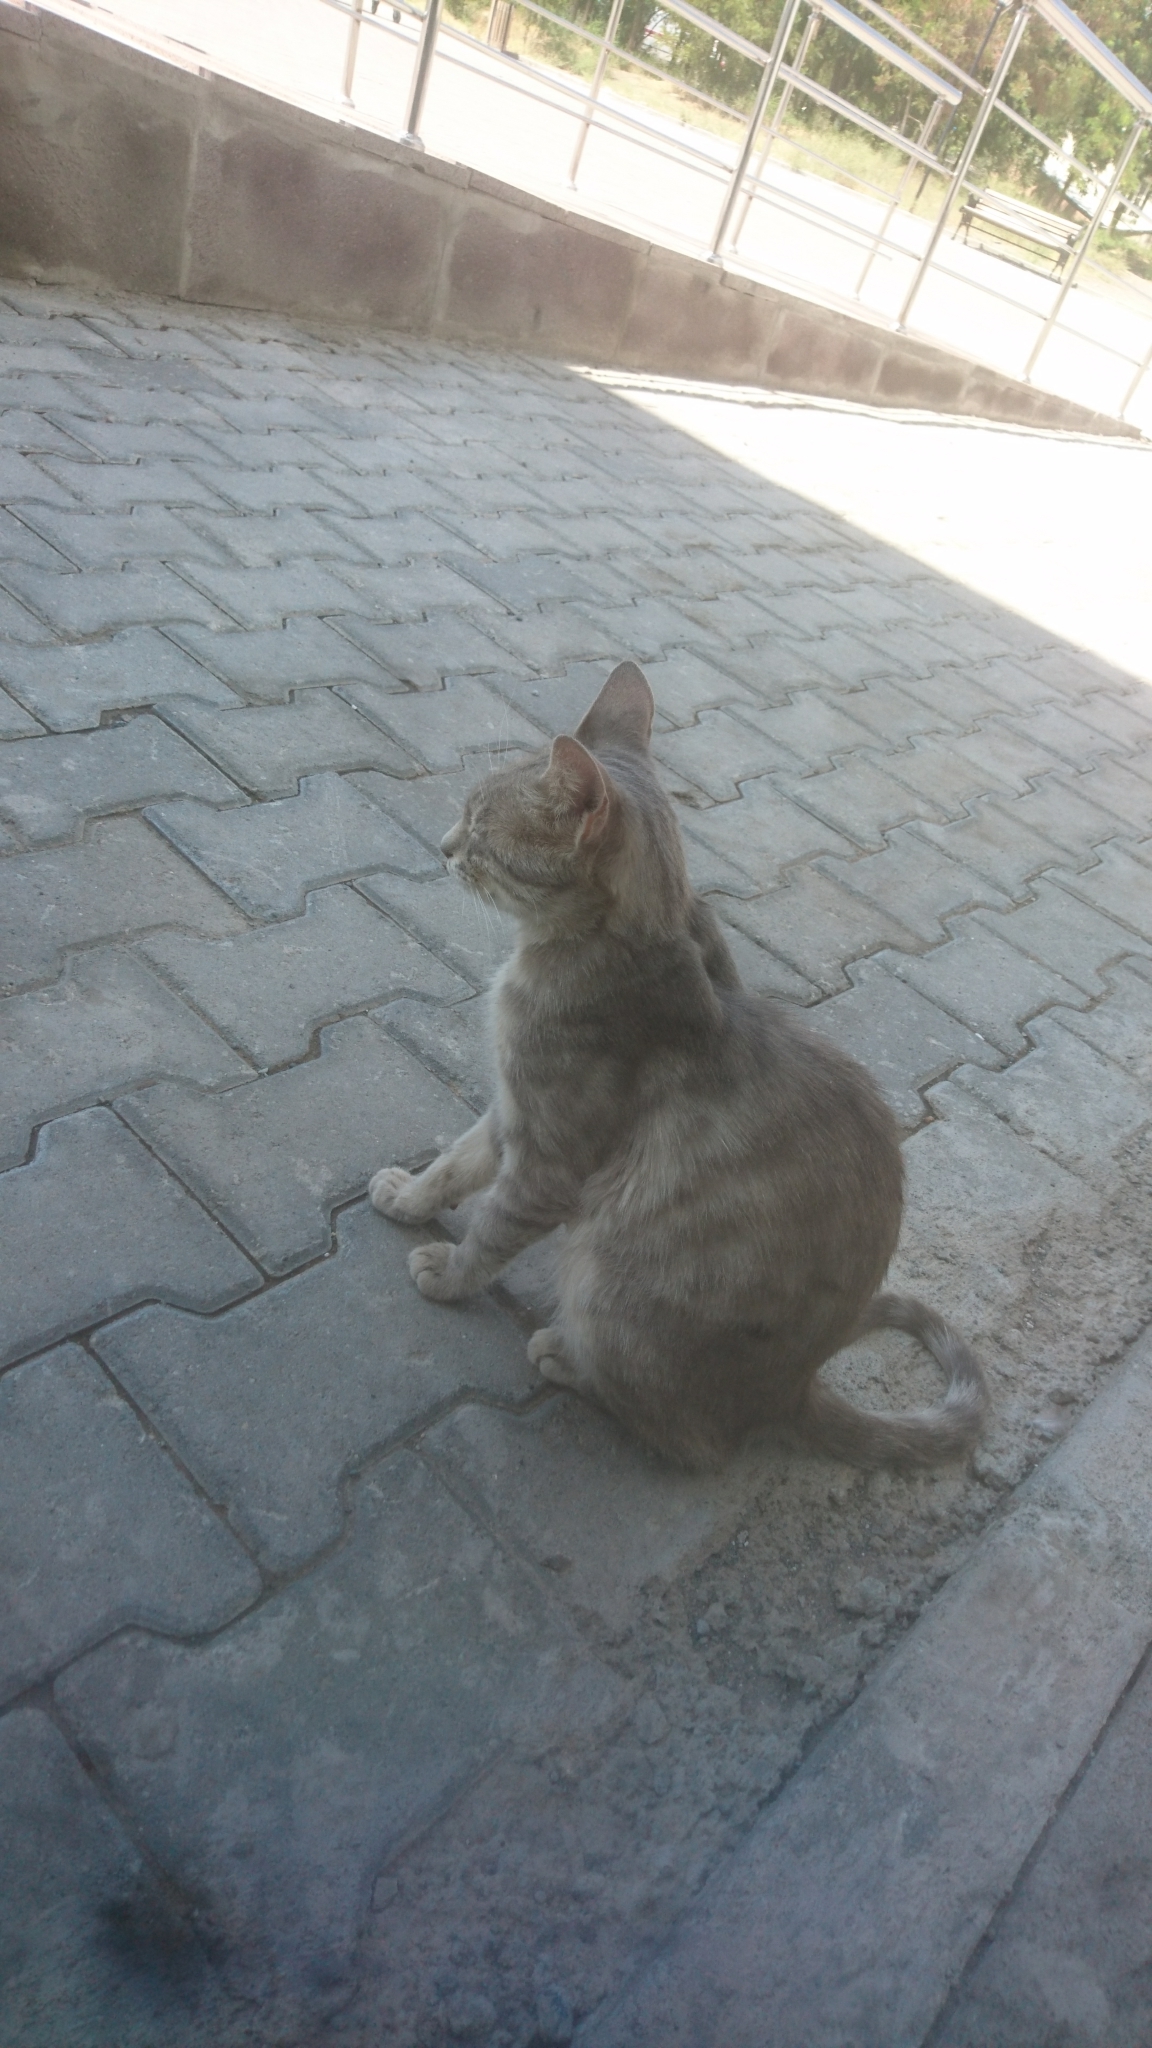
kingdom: Animalia
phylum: Chordata
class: Mammalia
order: Carnivora
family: Felidae
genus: Felis
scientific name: Felis catus
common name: Domestic cat
